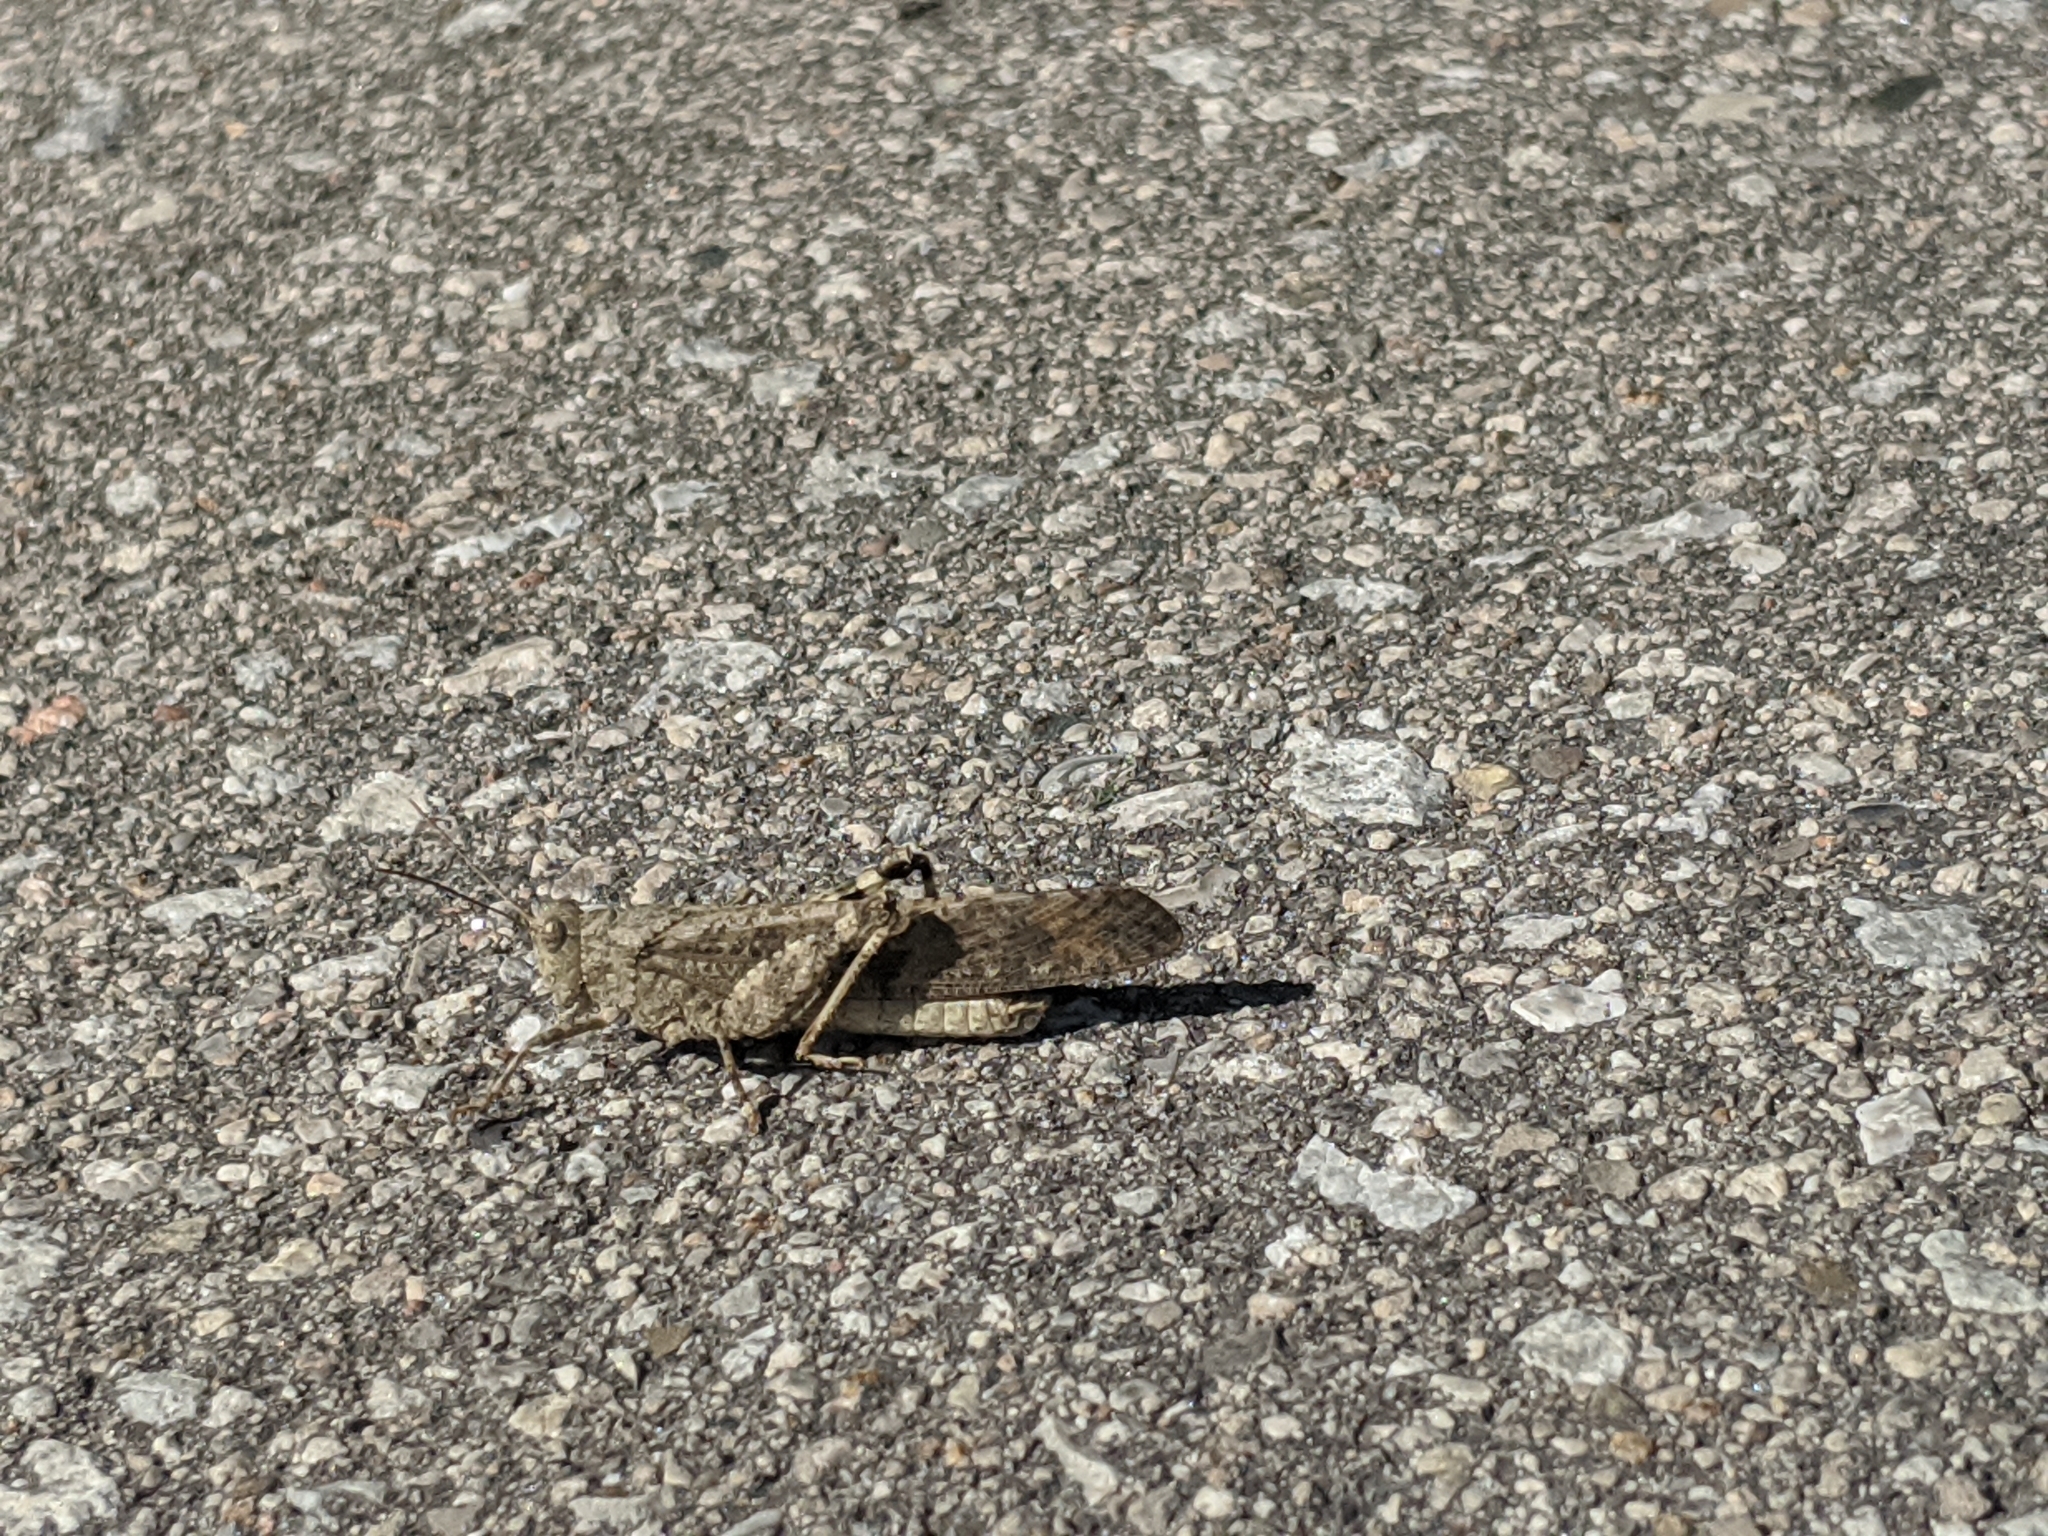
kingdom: Animalia
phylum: Arthropoda
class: Insecta
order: Orthoptera
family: Acrididae
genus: Dissosteira
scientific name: Dissosteira carolina
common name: Carolina grasshopper
